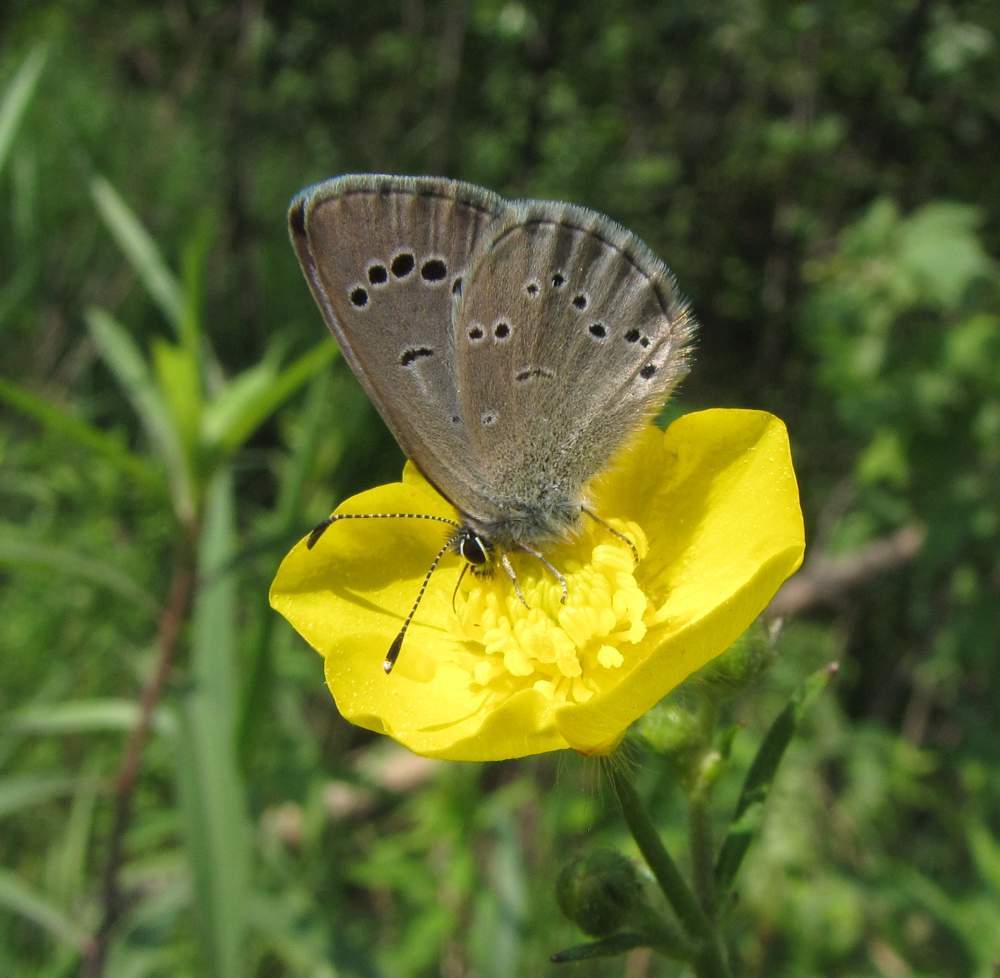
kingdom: Animalia
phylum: Arthropoda
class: Insecta
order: Lepidoptera
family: Lycaenidae
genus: Glaucopsyche
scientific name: Glaucopsyche lygdamus
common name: Silvery blue
